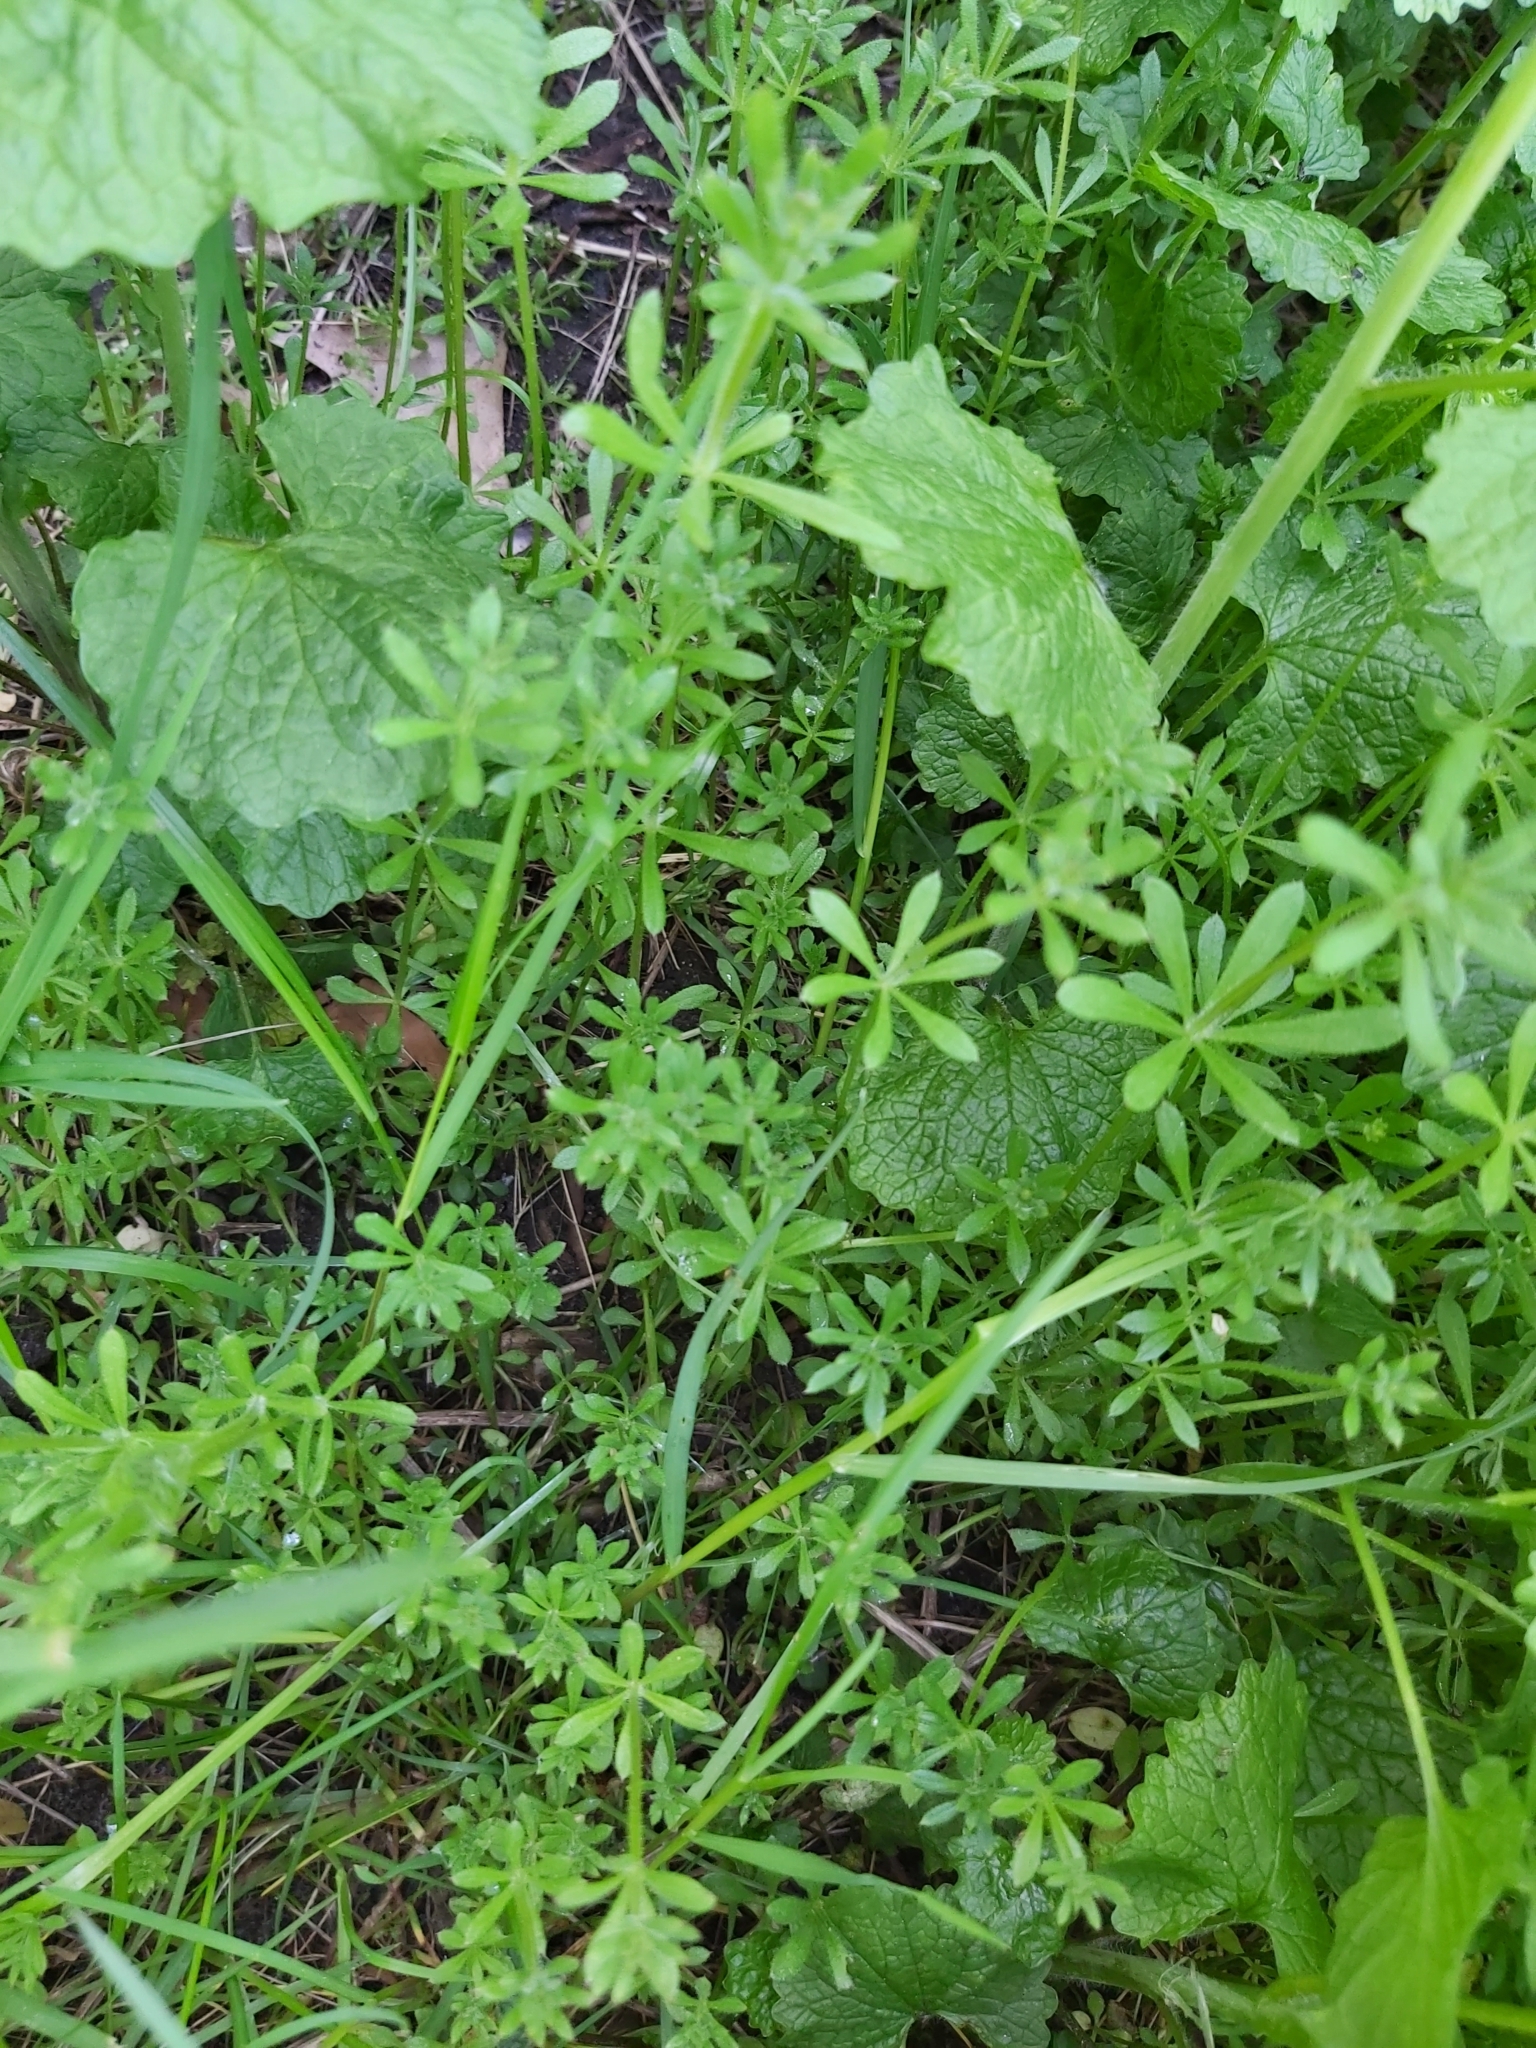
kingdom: Plantae
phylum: Tracheophyta
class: Magnoliopsida
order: Gentianales
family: Rubiaceae
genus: Galium
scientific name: Galium aparine
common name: Cleavers
